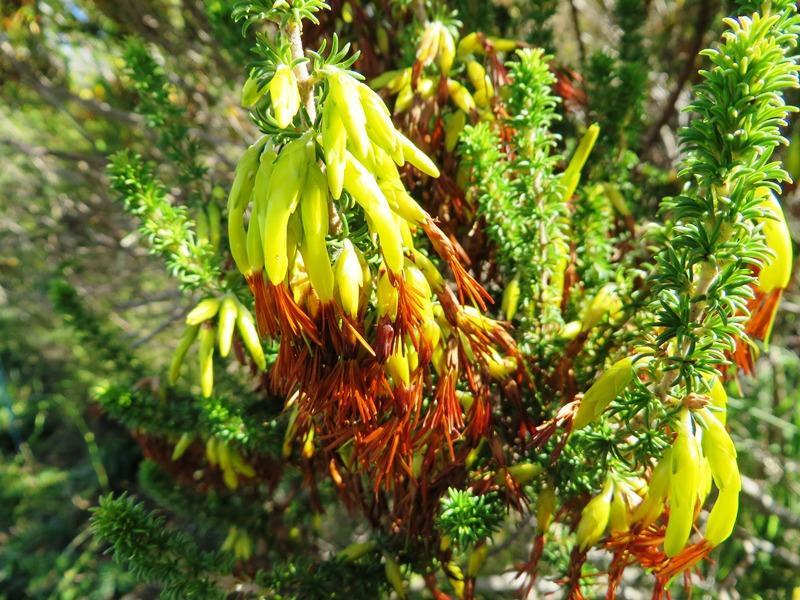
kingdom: Plantae
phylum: Tracheophyta
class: Magnoliopsida
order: Ericales
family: Ericaceae
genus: Erica
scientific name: Erica coccinea
